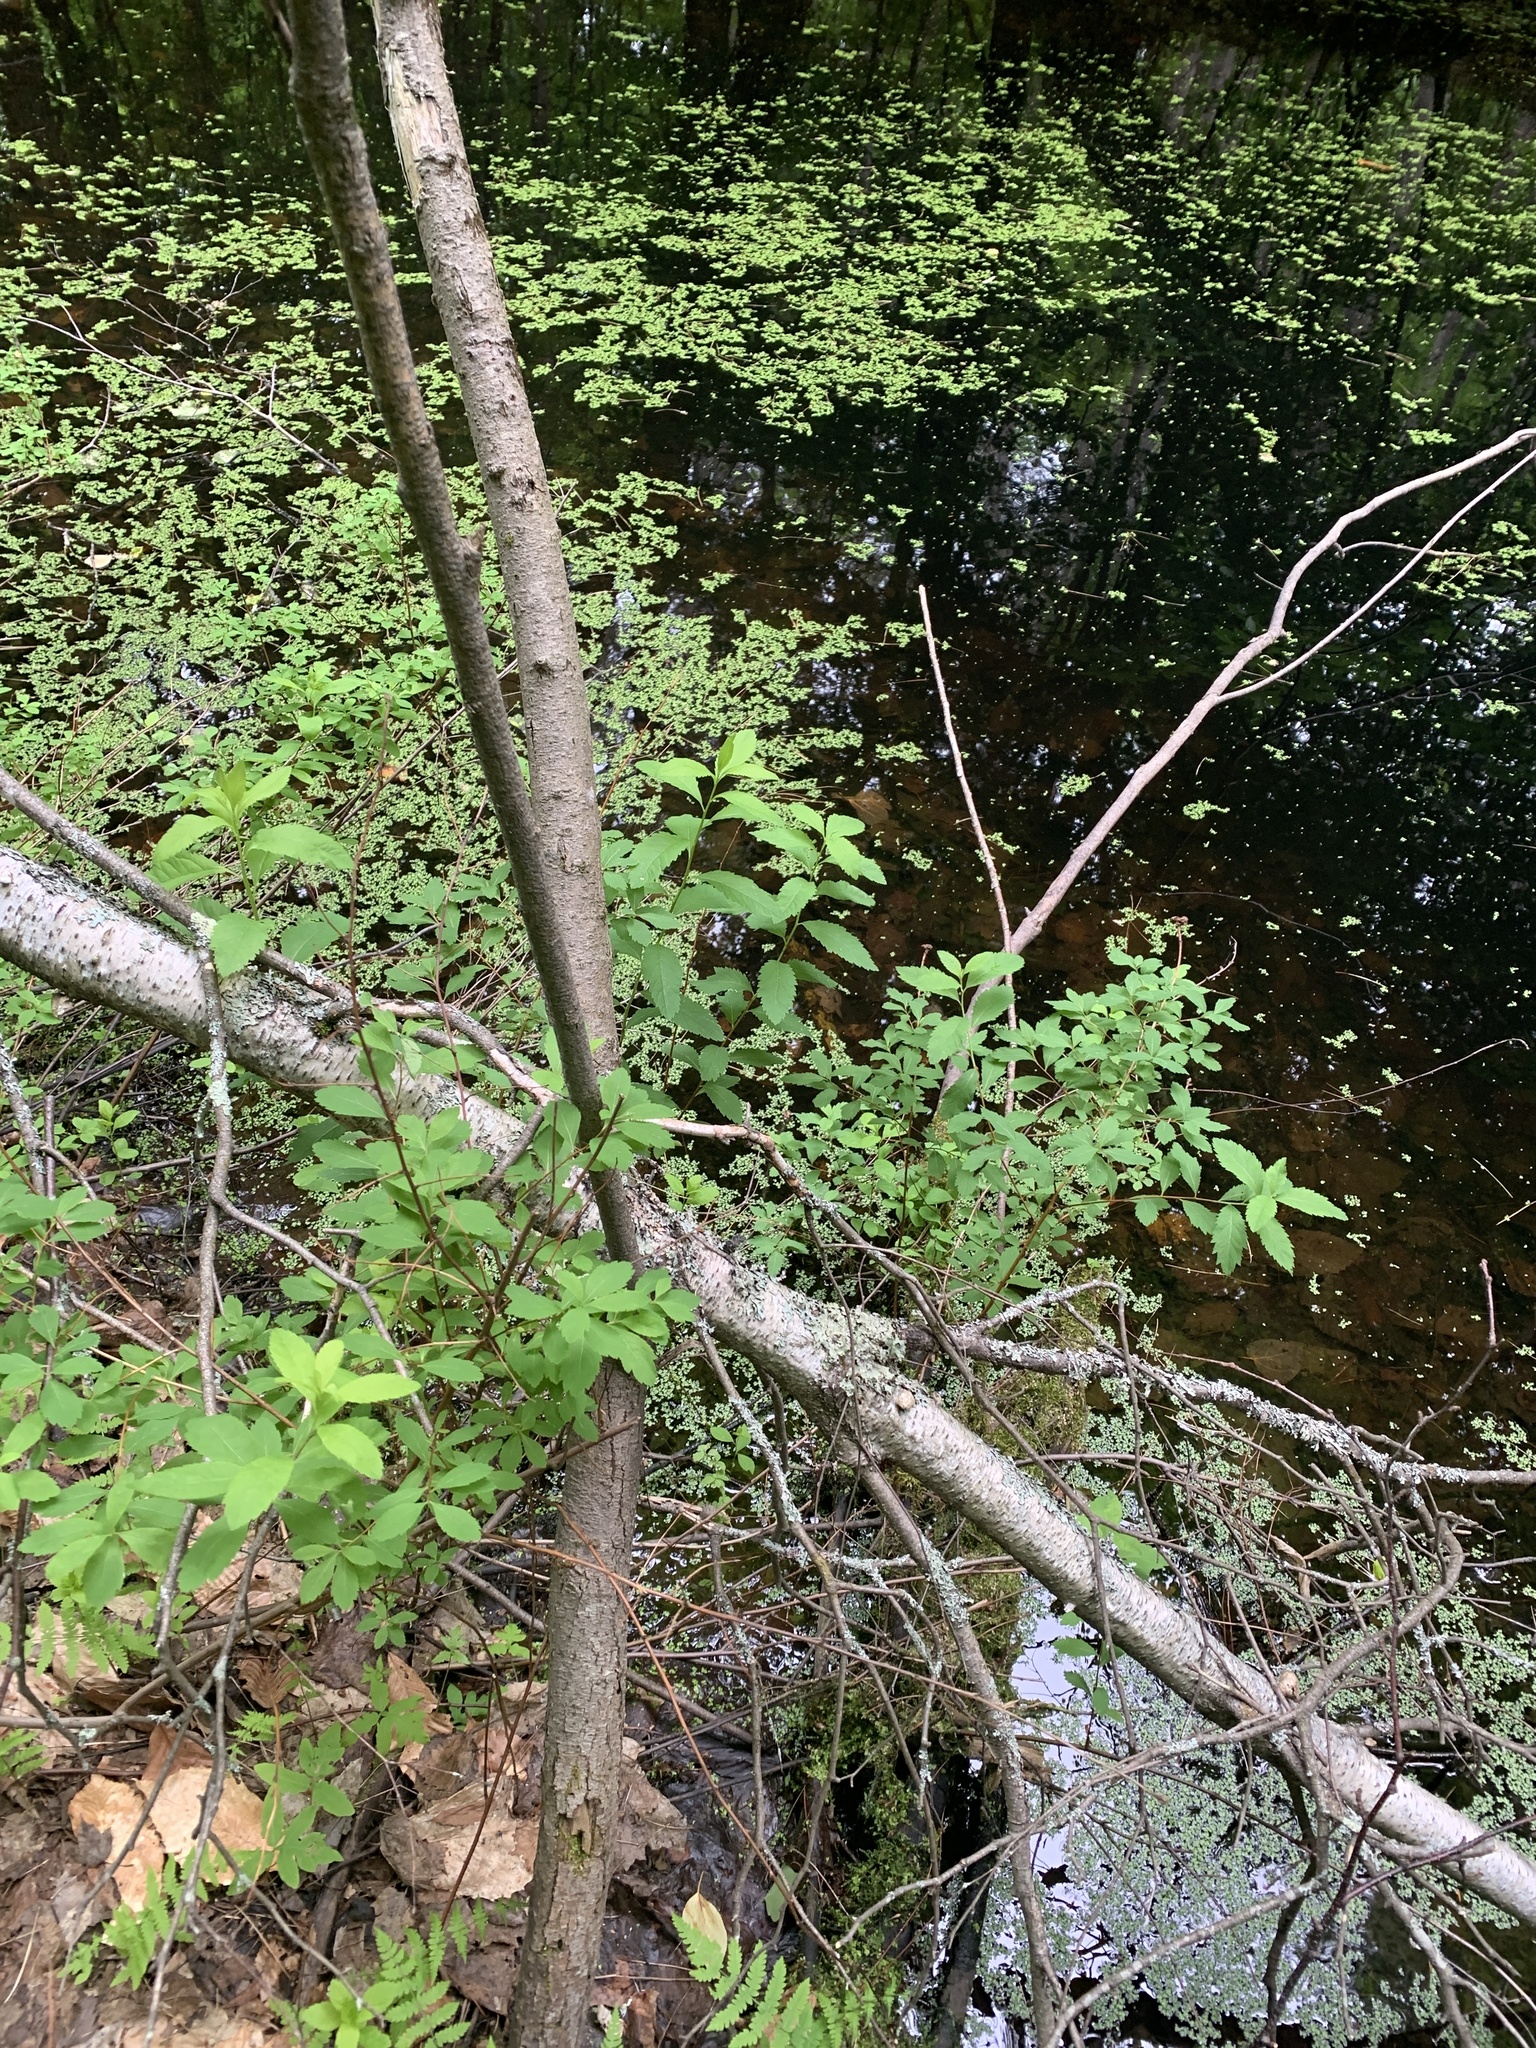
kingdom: Plantae
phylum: Tracheophyta
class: Magnoliopsida
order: Rosales
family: Rosaceae
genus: Spiraea
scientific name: Spiraea alba
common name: Pale bridewort
